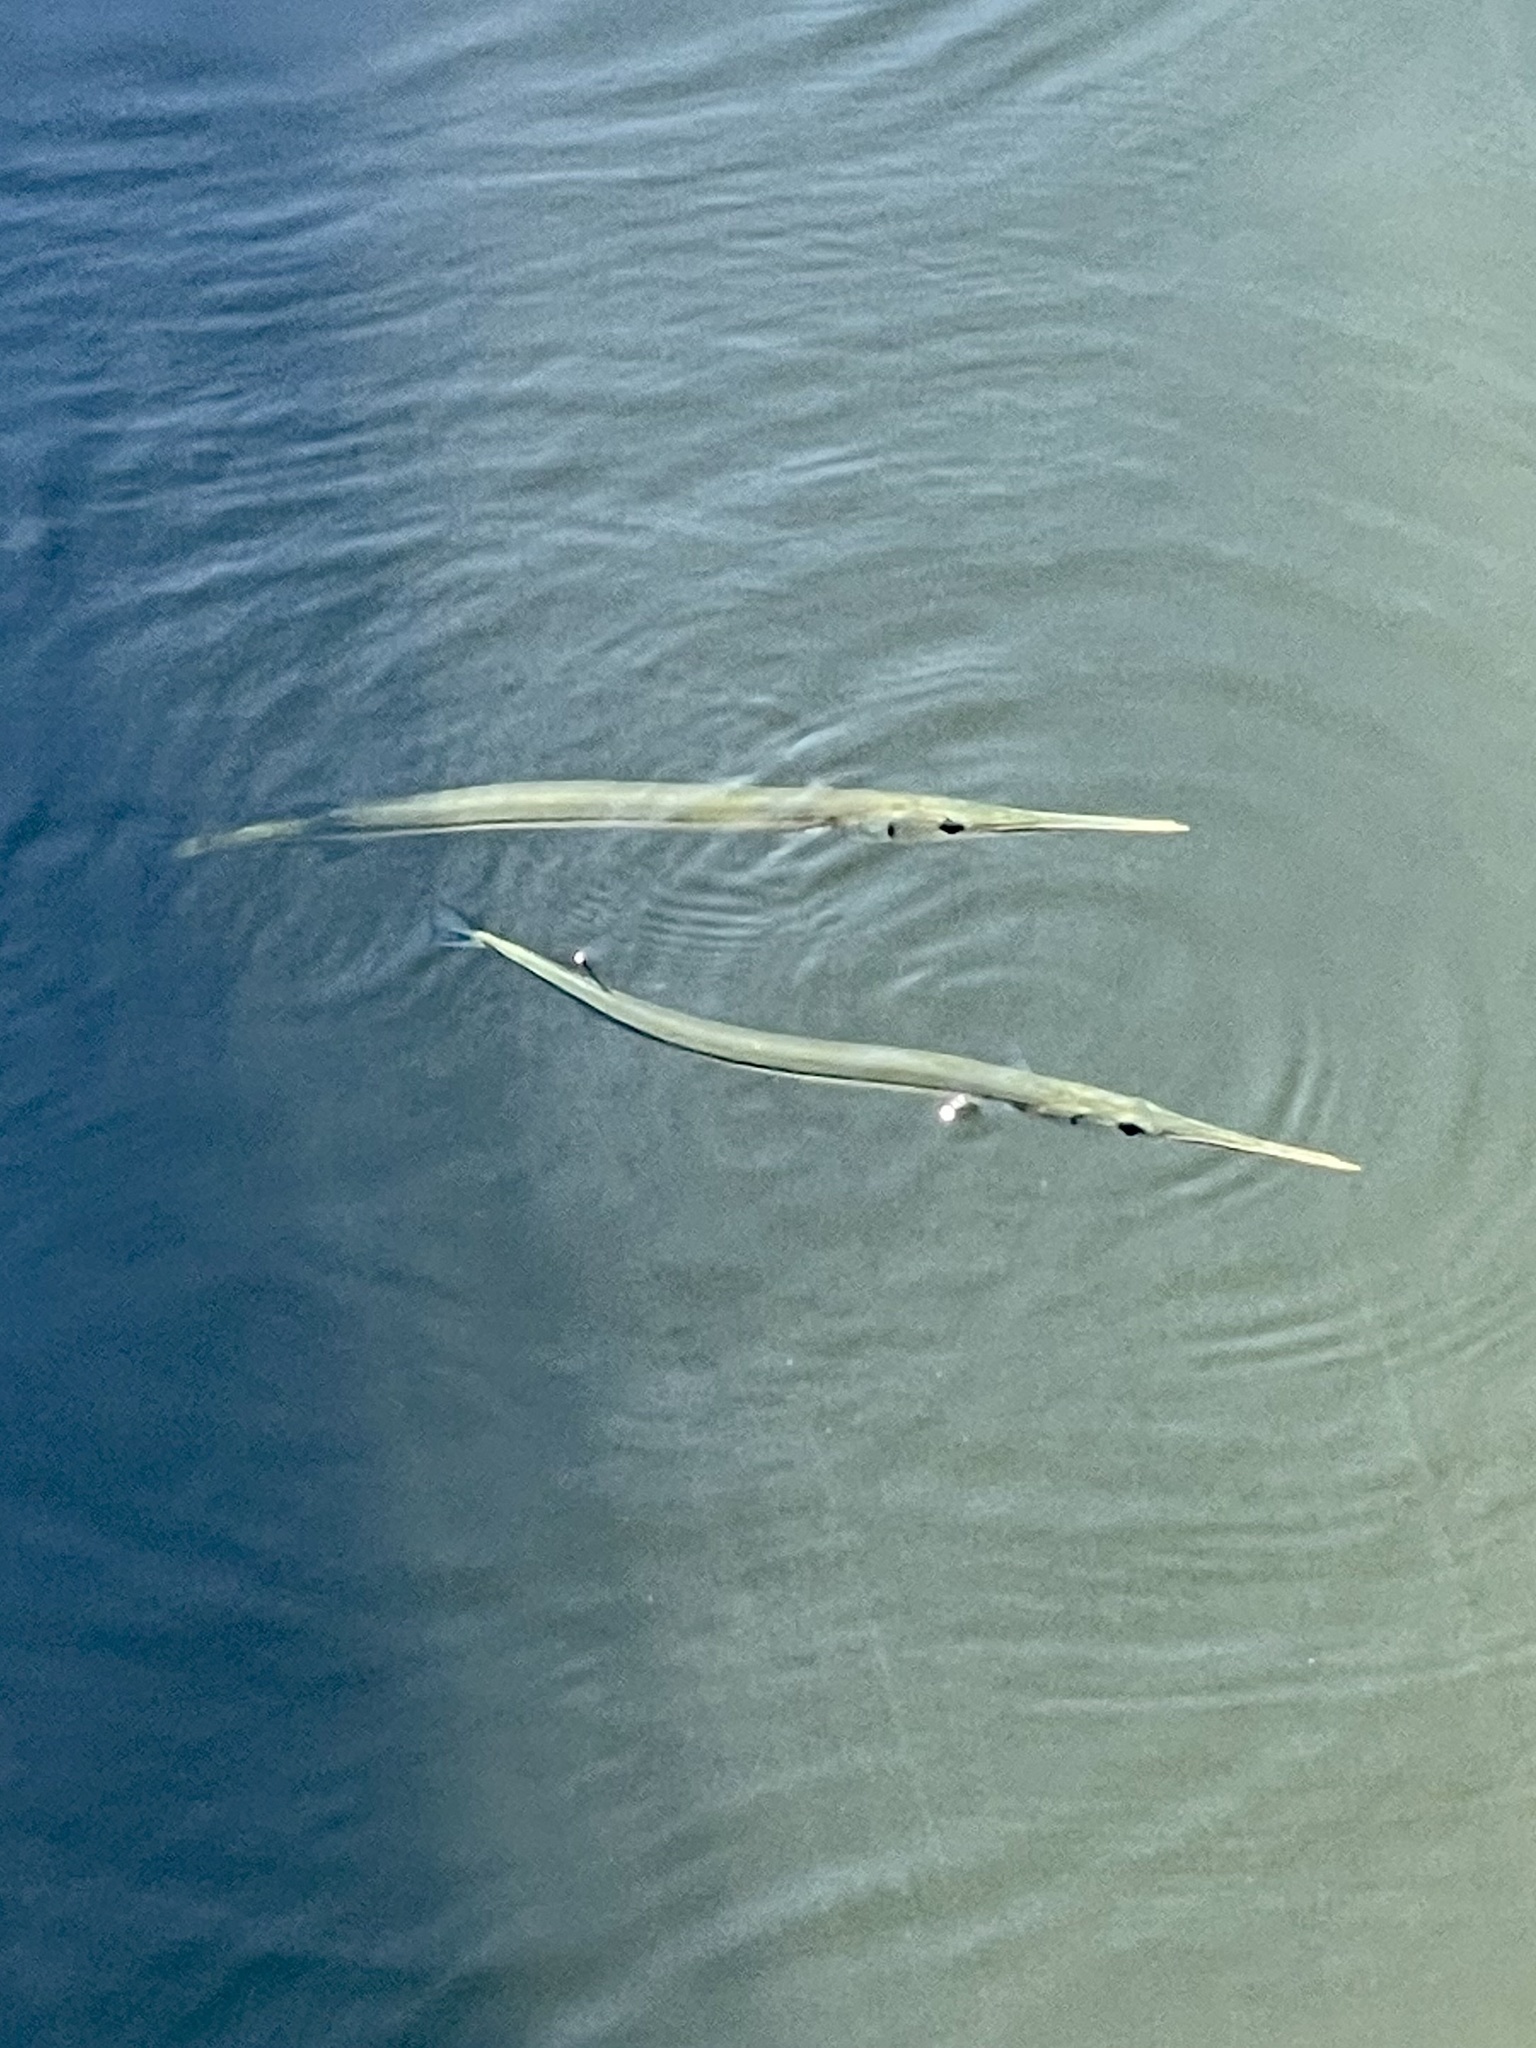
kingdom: Animalia
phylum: Chordata
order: Beloniformes
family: Belonidae
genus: Strongylura
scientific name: Strongylura
